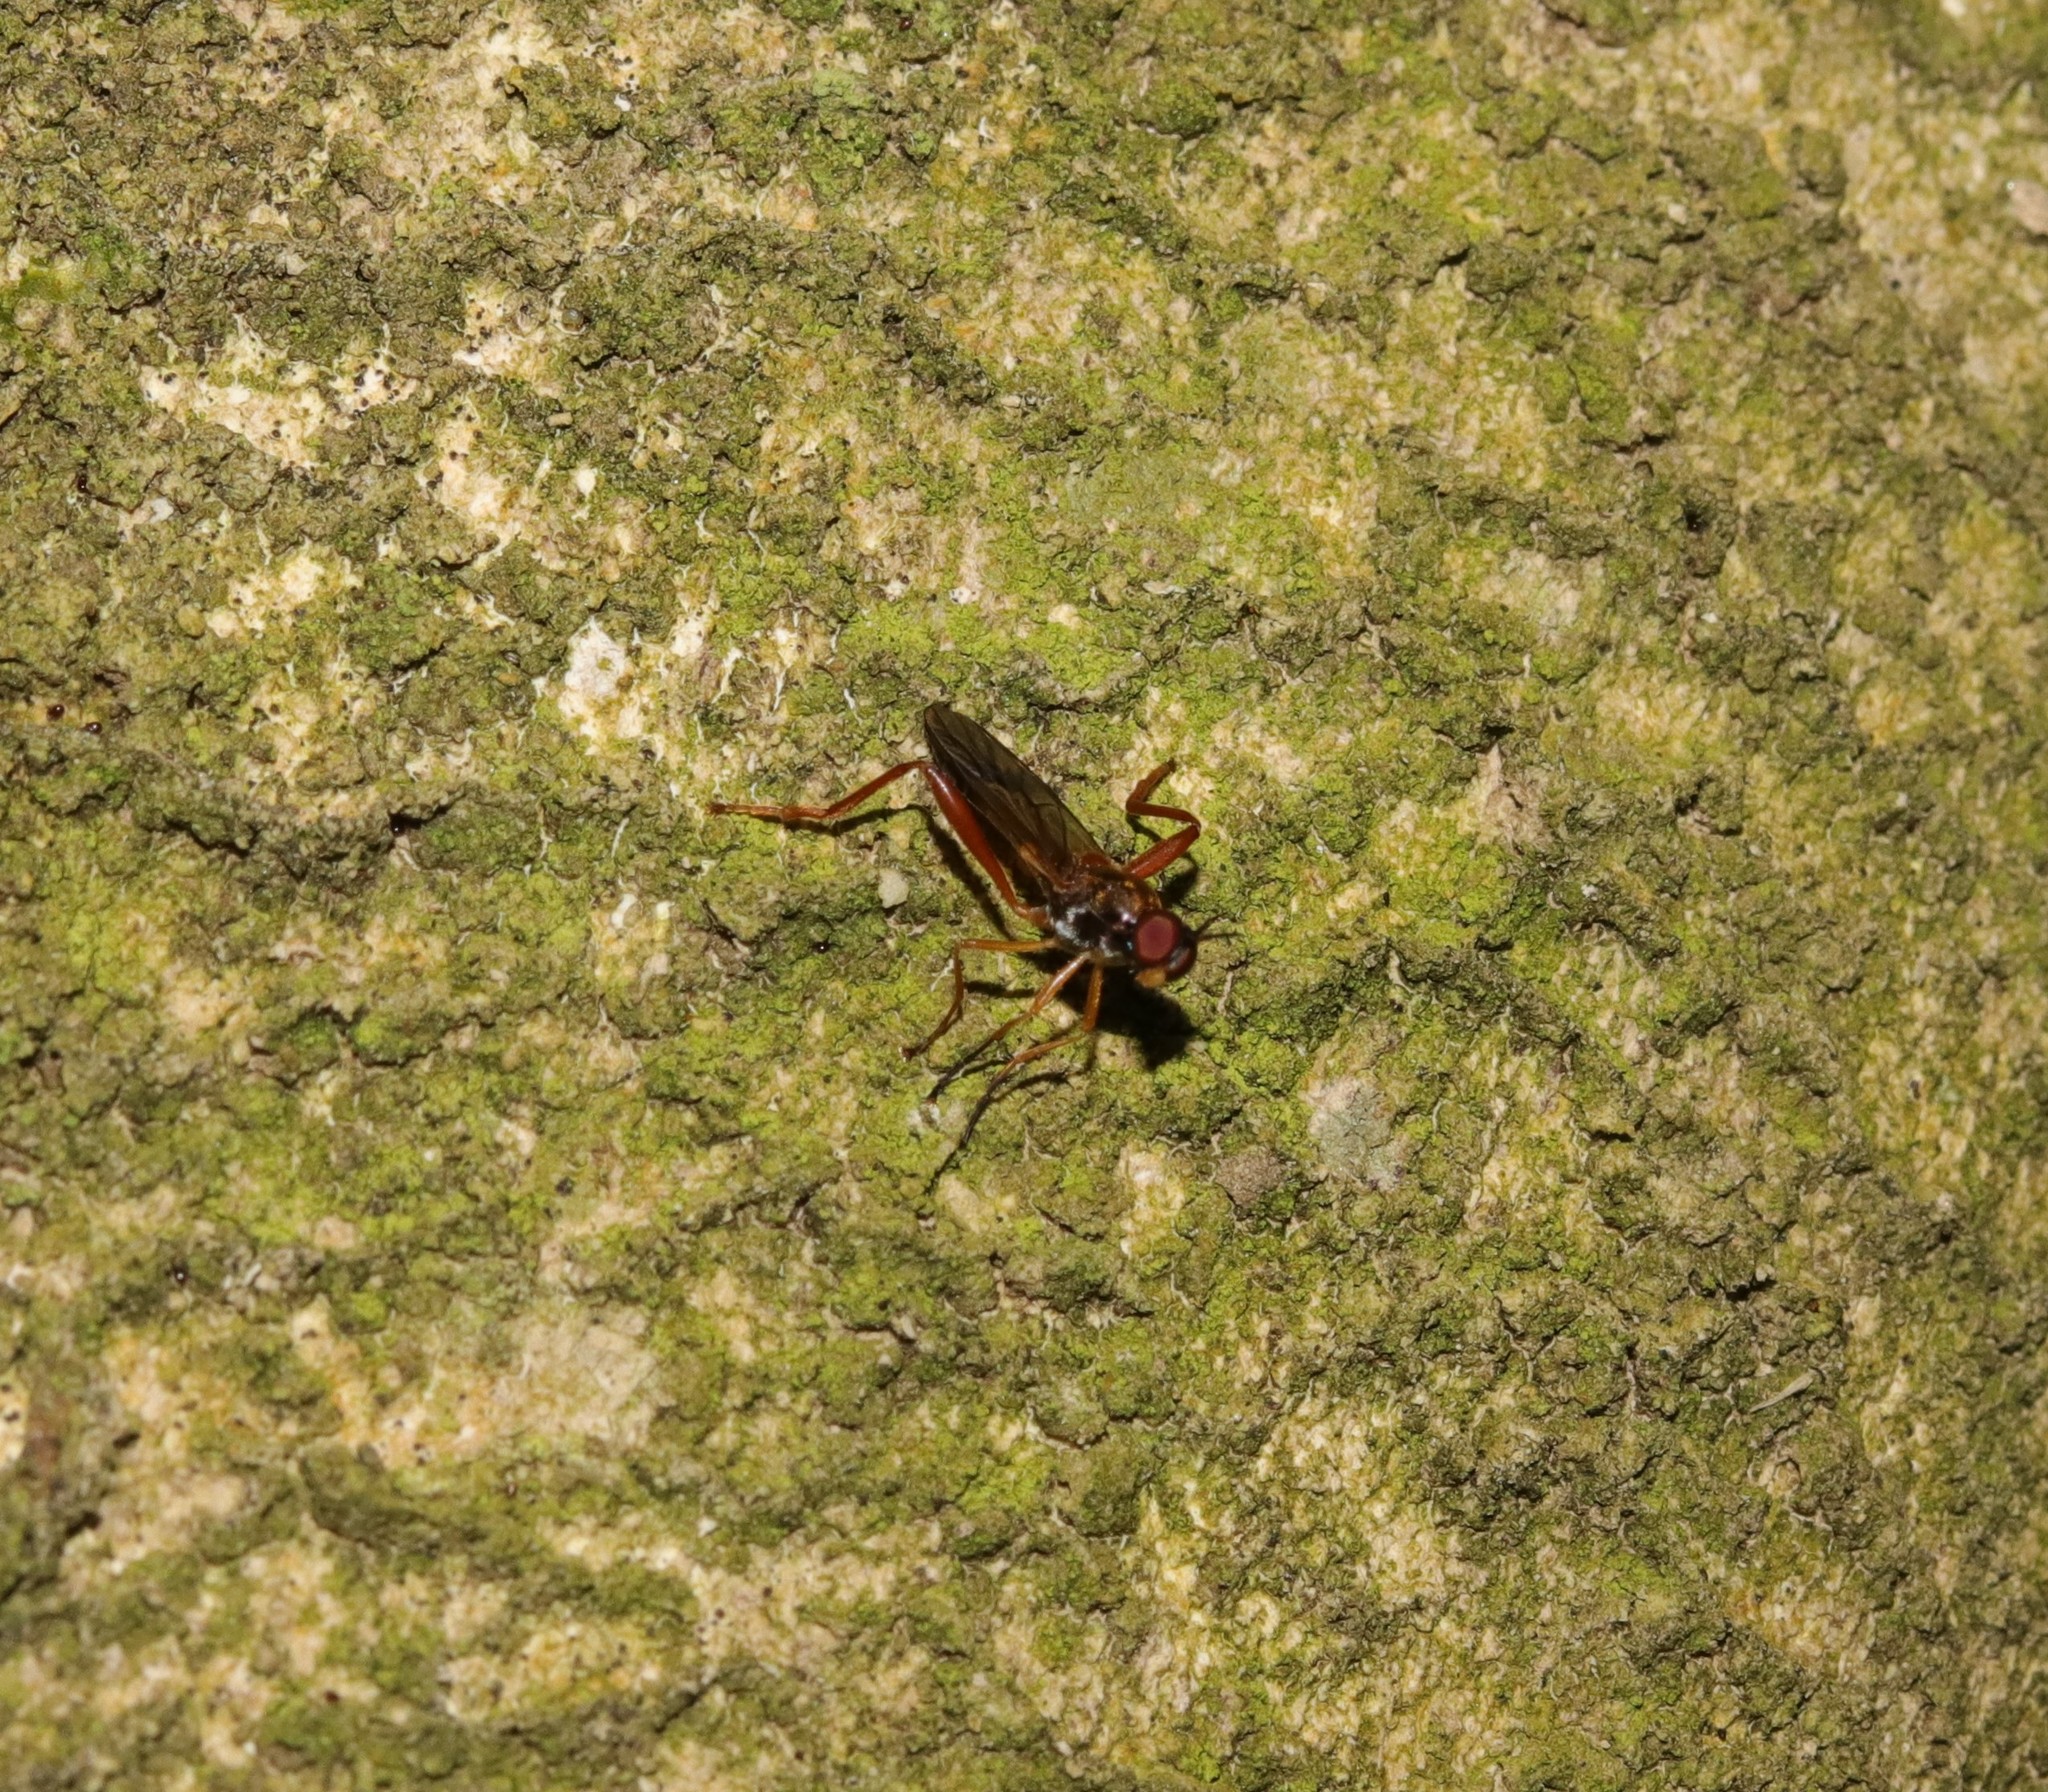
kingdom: Animalia
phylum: Arthropoda
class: Insecta
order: Diptera
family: Stratiomyidae
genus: Benhamyia
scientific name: Benhamyia straznitzkii
